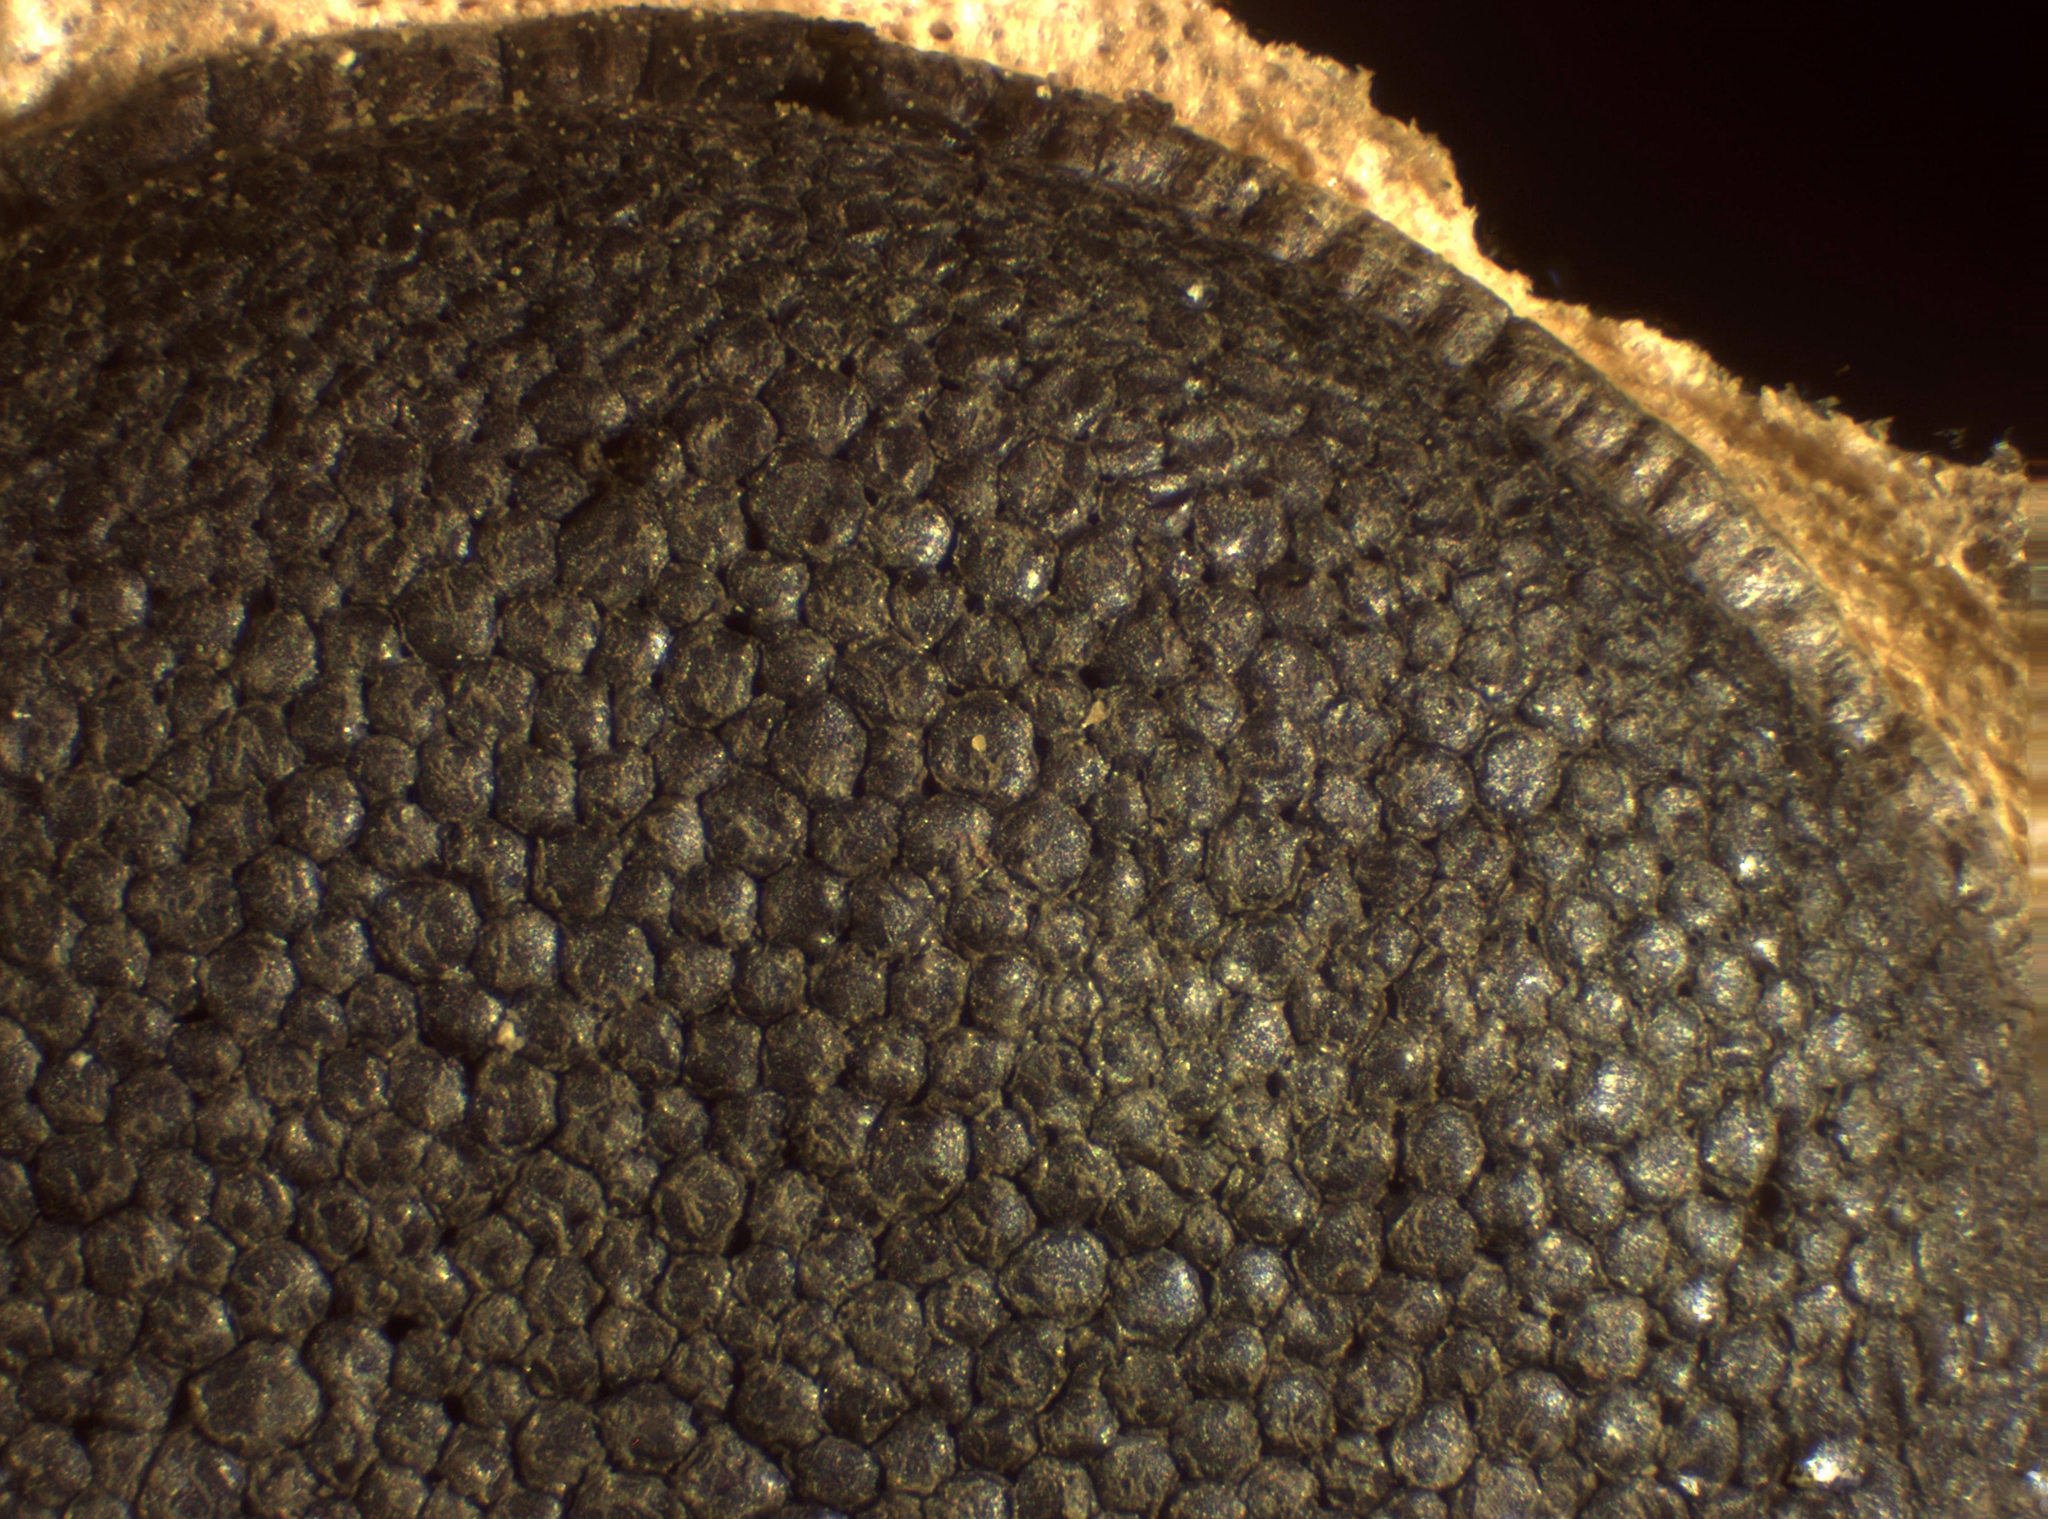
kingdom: Protozoa
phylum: Mycetozoa
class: Myxomycetes
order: Stemonitidales
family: Stemonitidaceae
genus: Amaurochaete
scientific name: Amaurochaete comata
